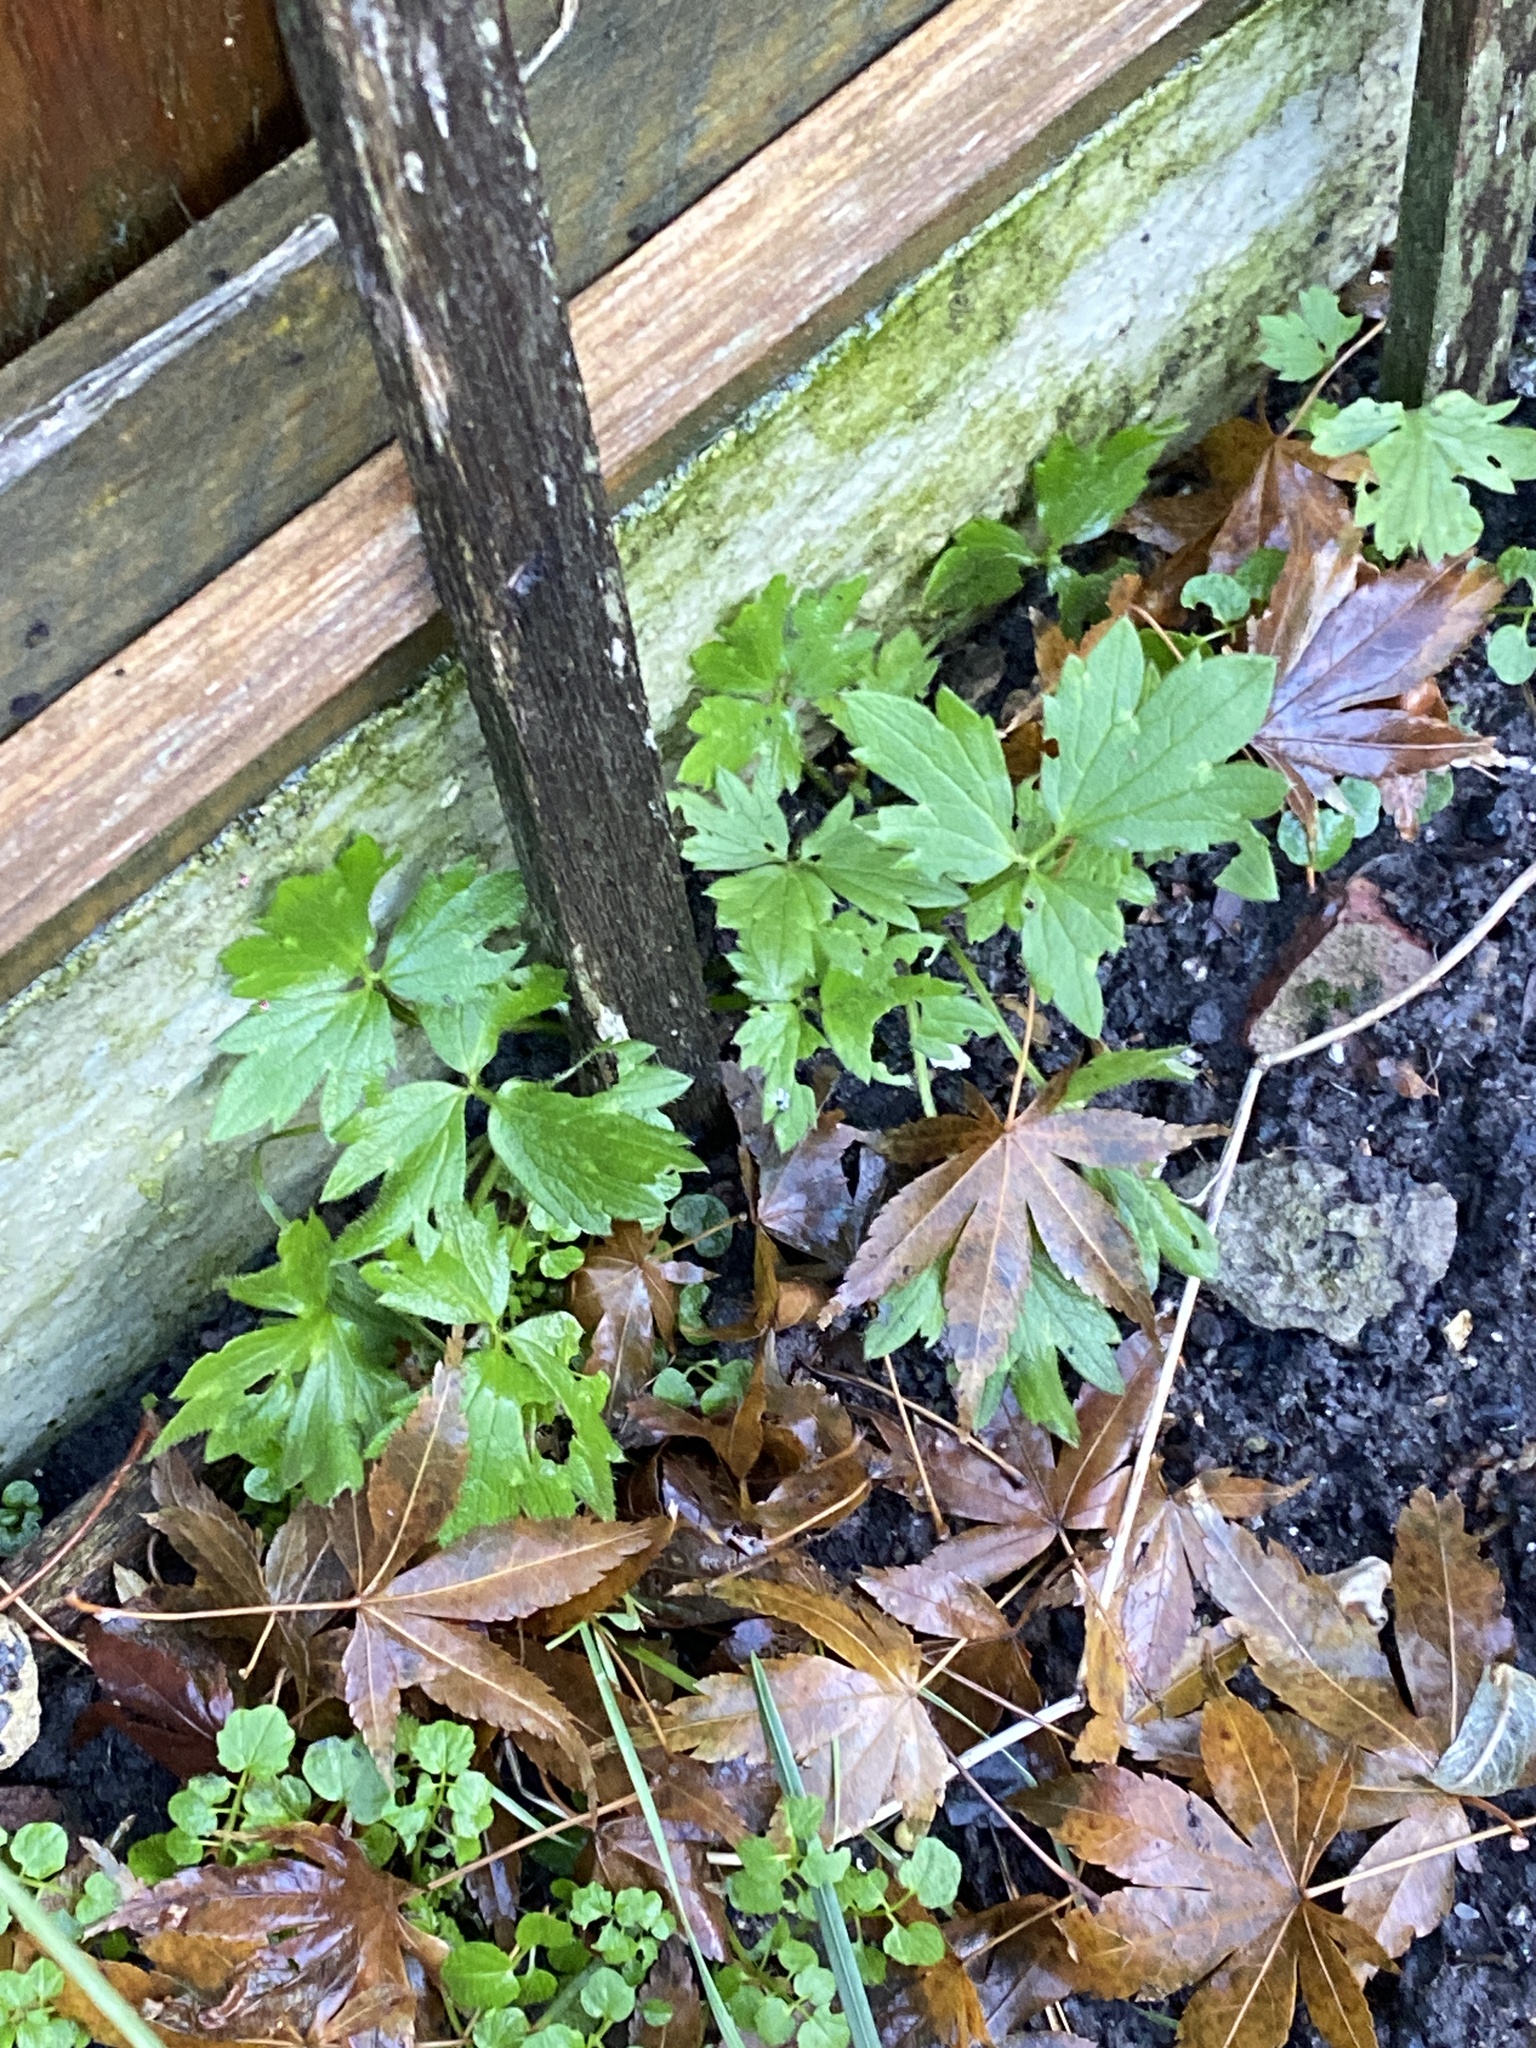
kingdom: Plantae
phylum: Tracheophyta
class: Magnoliopsida
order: Ranunculales
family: Ranunculaceae
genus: Ranunculus
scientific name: Ranunculus repens
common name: Creeping buttercup
